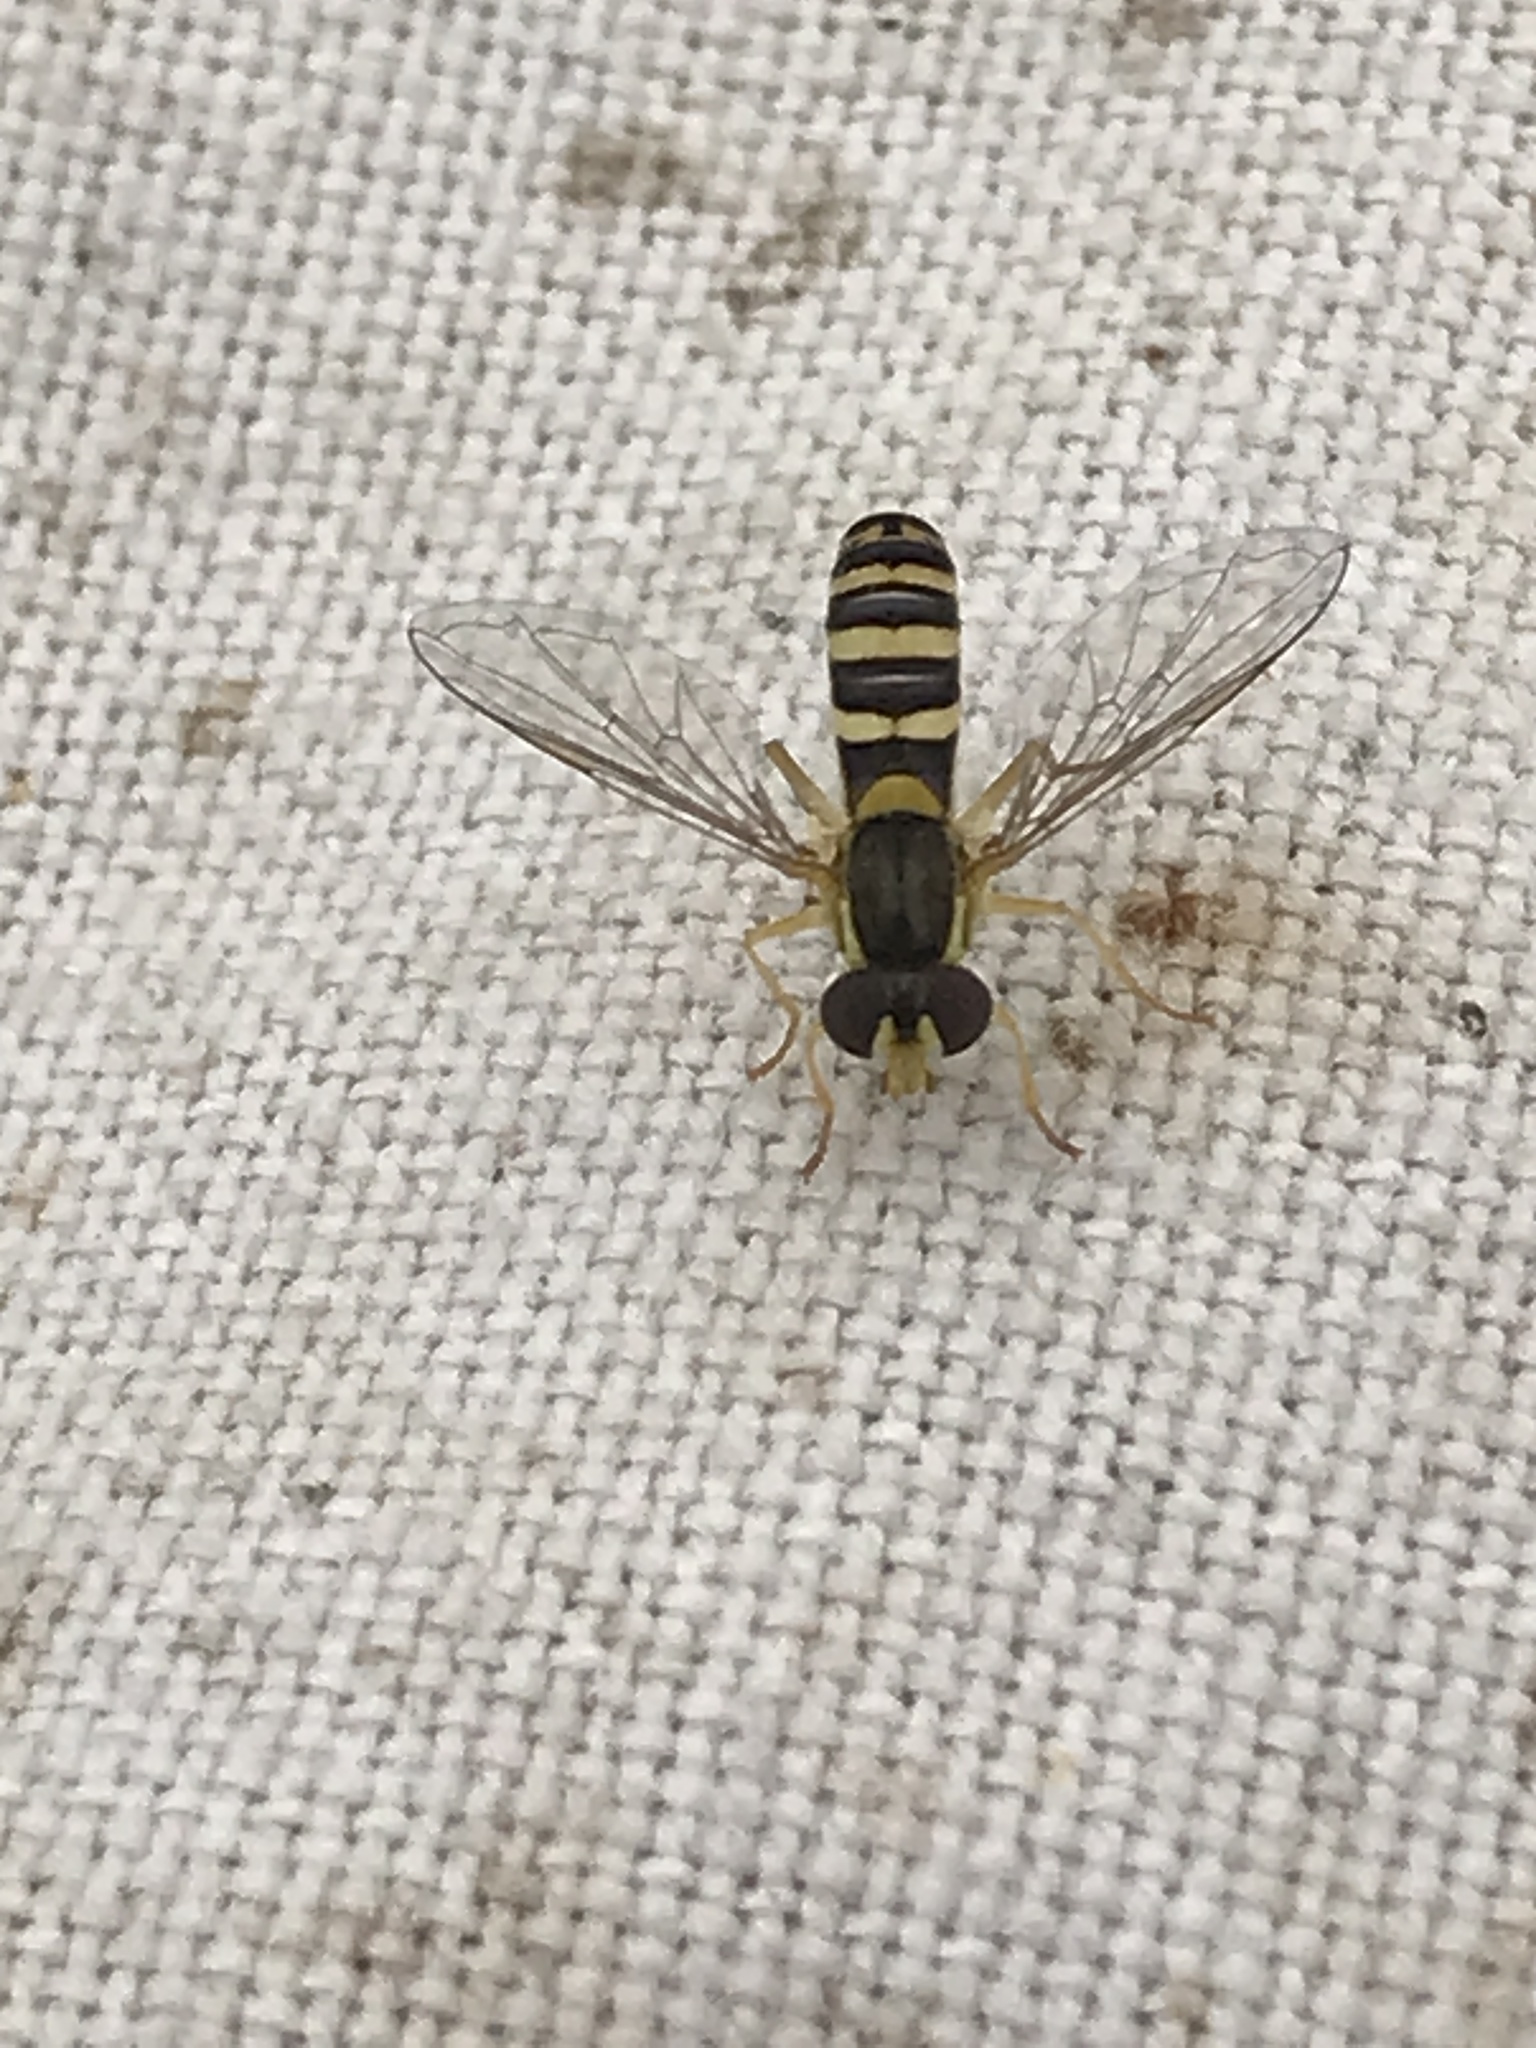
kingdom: Animalia
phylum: Arthropoda
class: Insecta
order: Diptera
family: Syrphidae
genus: Sphaerophoria
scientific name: Sphaerophoria
